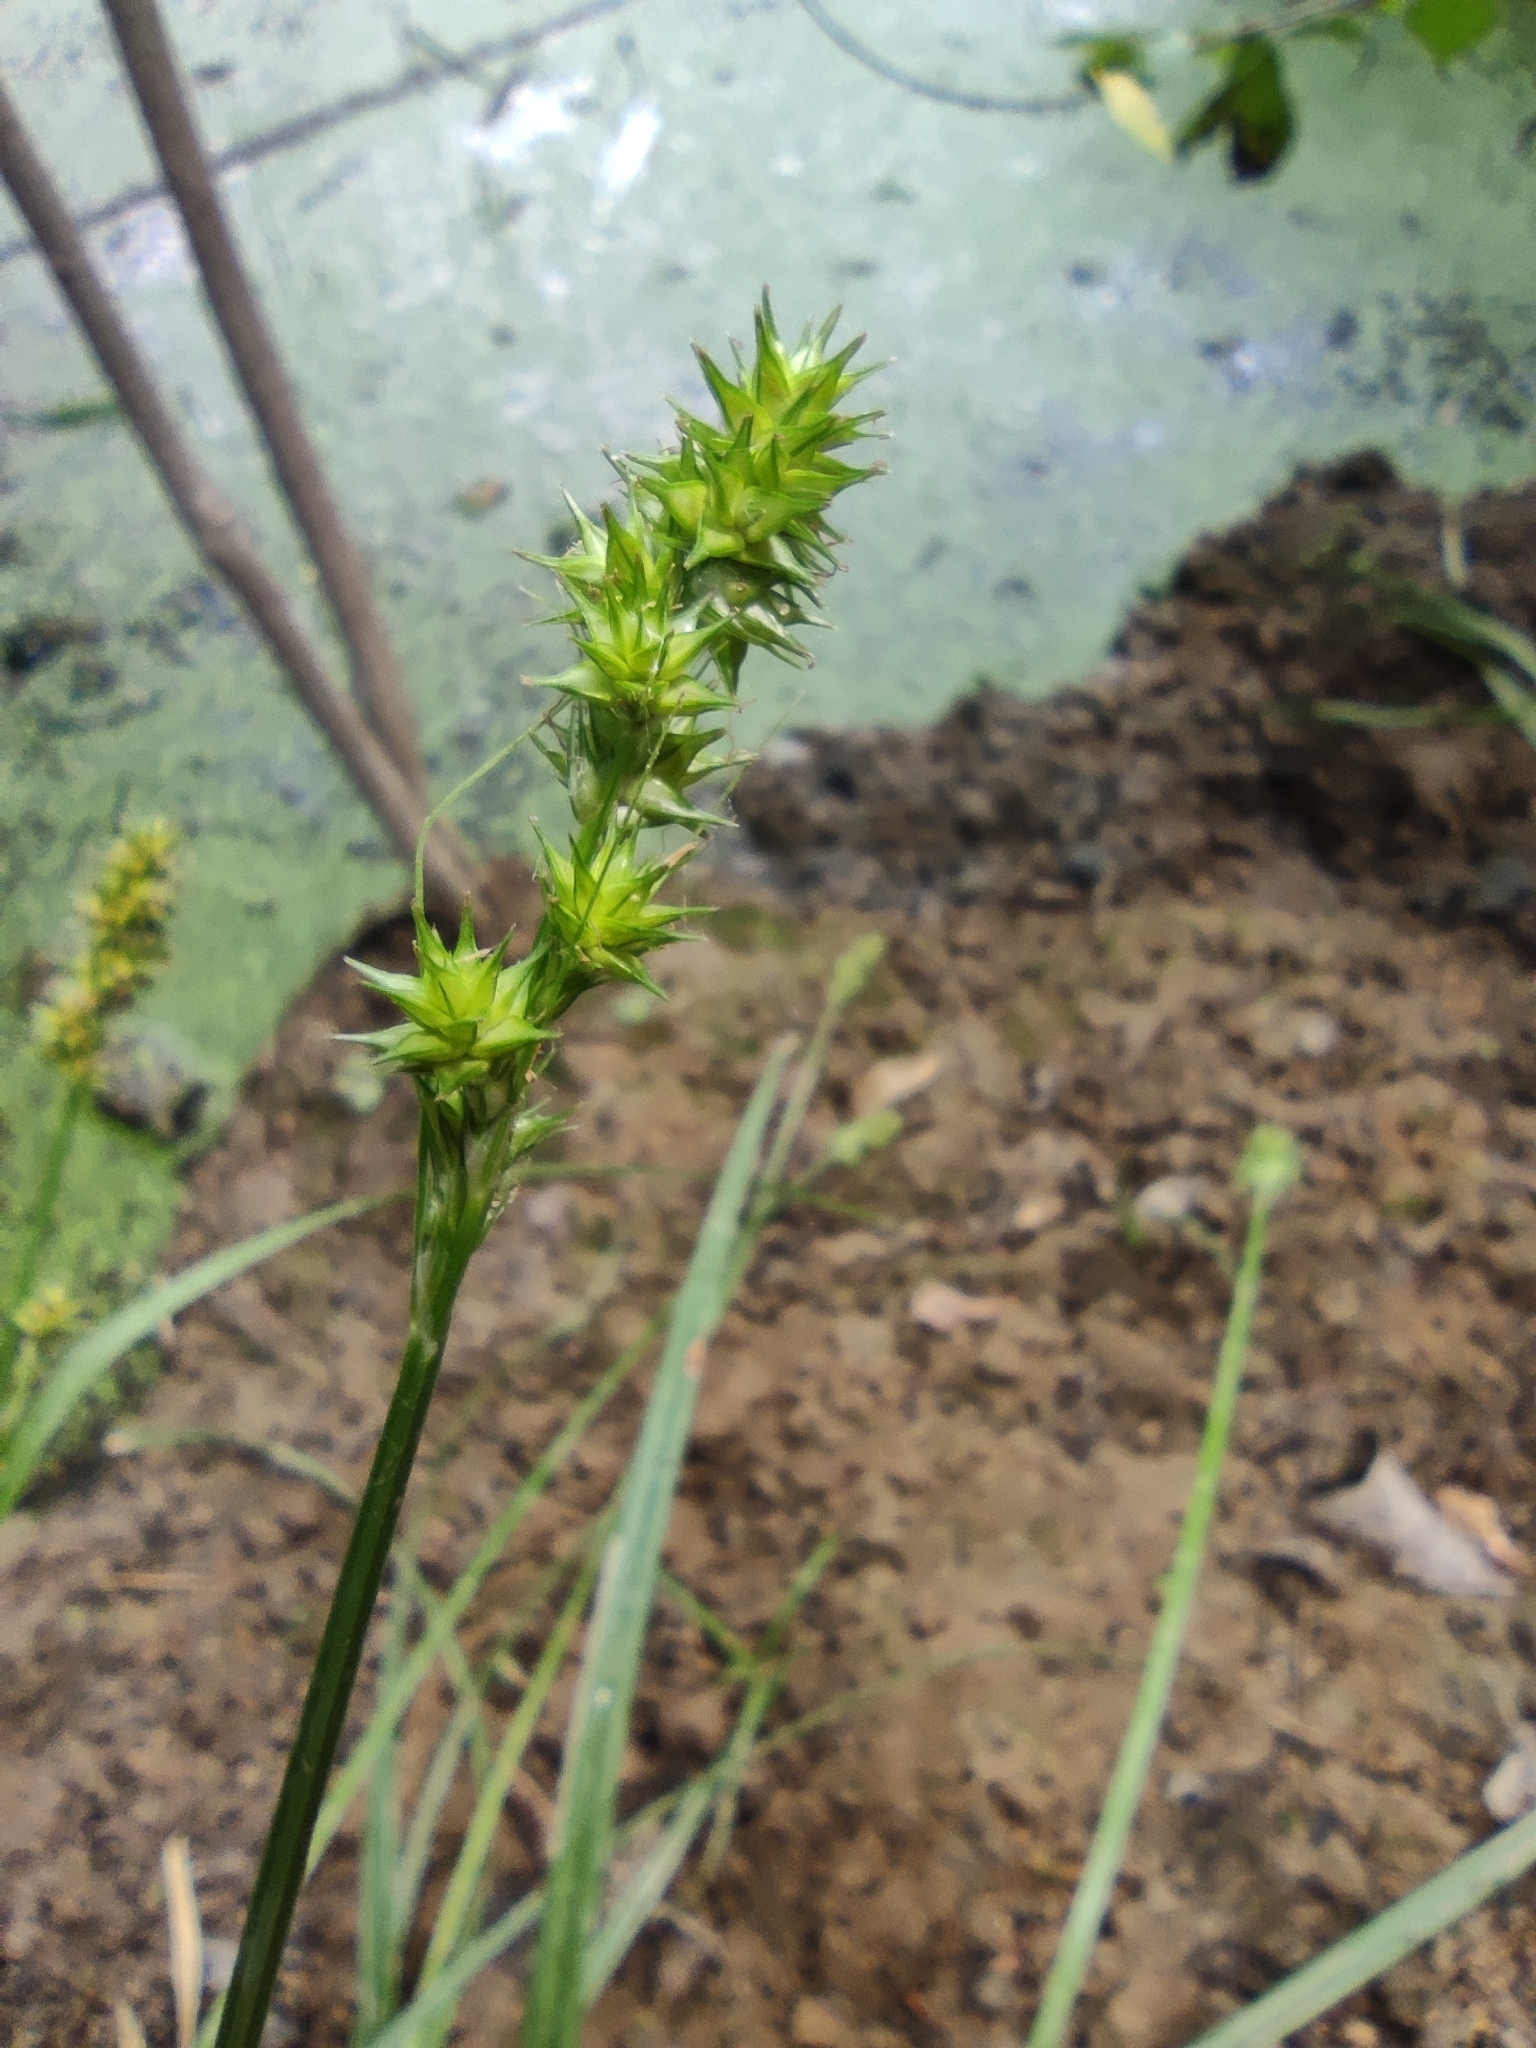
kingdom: Plantae
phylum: Tracheophyta
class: Liliopsida
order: Poales
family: Cyperaceae
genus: Carex
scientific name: Carex otrubae
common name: False fox-sedge
